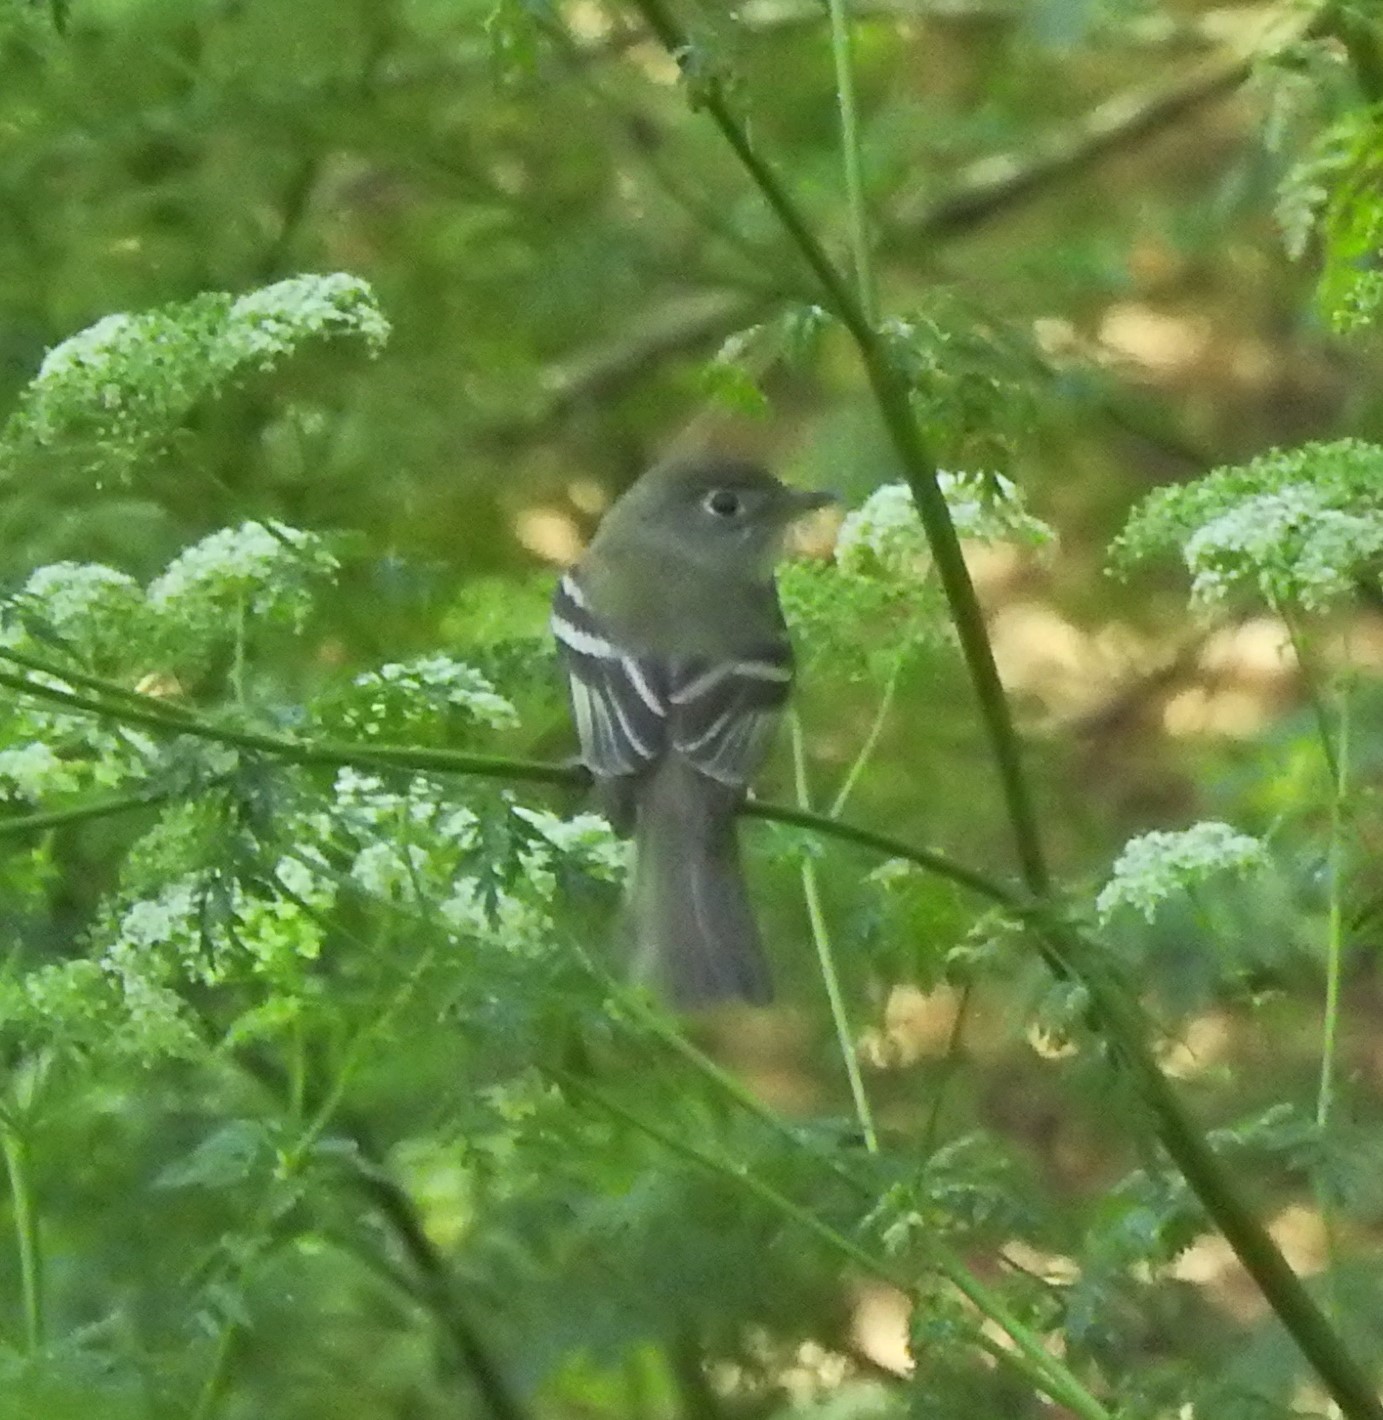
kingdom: Animalia
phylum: Chordata
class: Aves
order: Passeriformes
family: Tyrannidae
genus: Empidonax
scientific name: Empidonax minimus
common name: Least flycatcher
